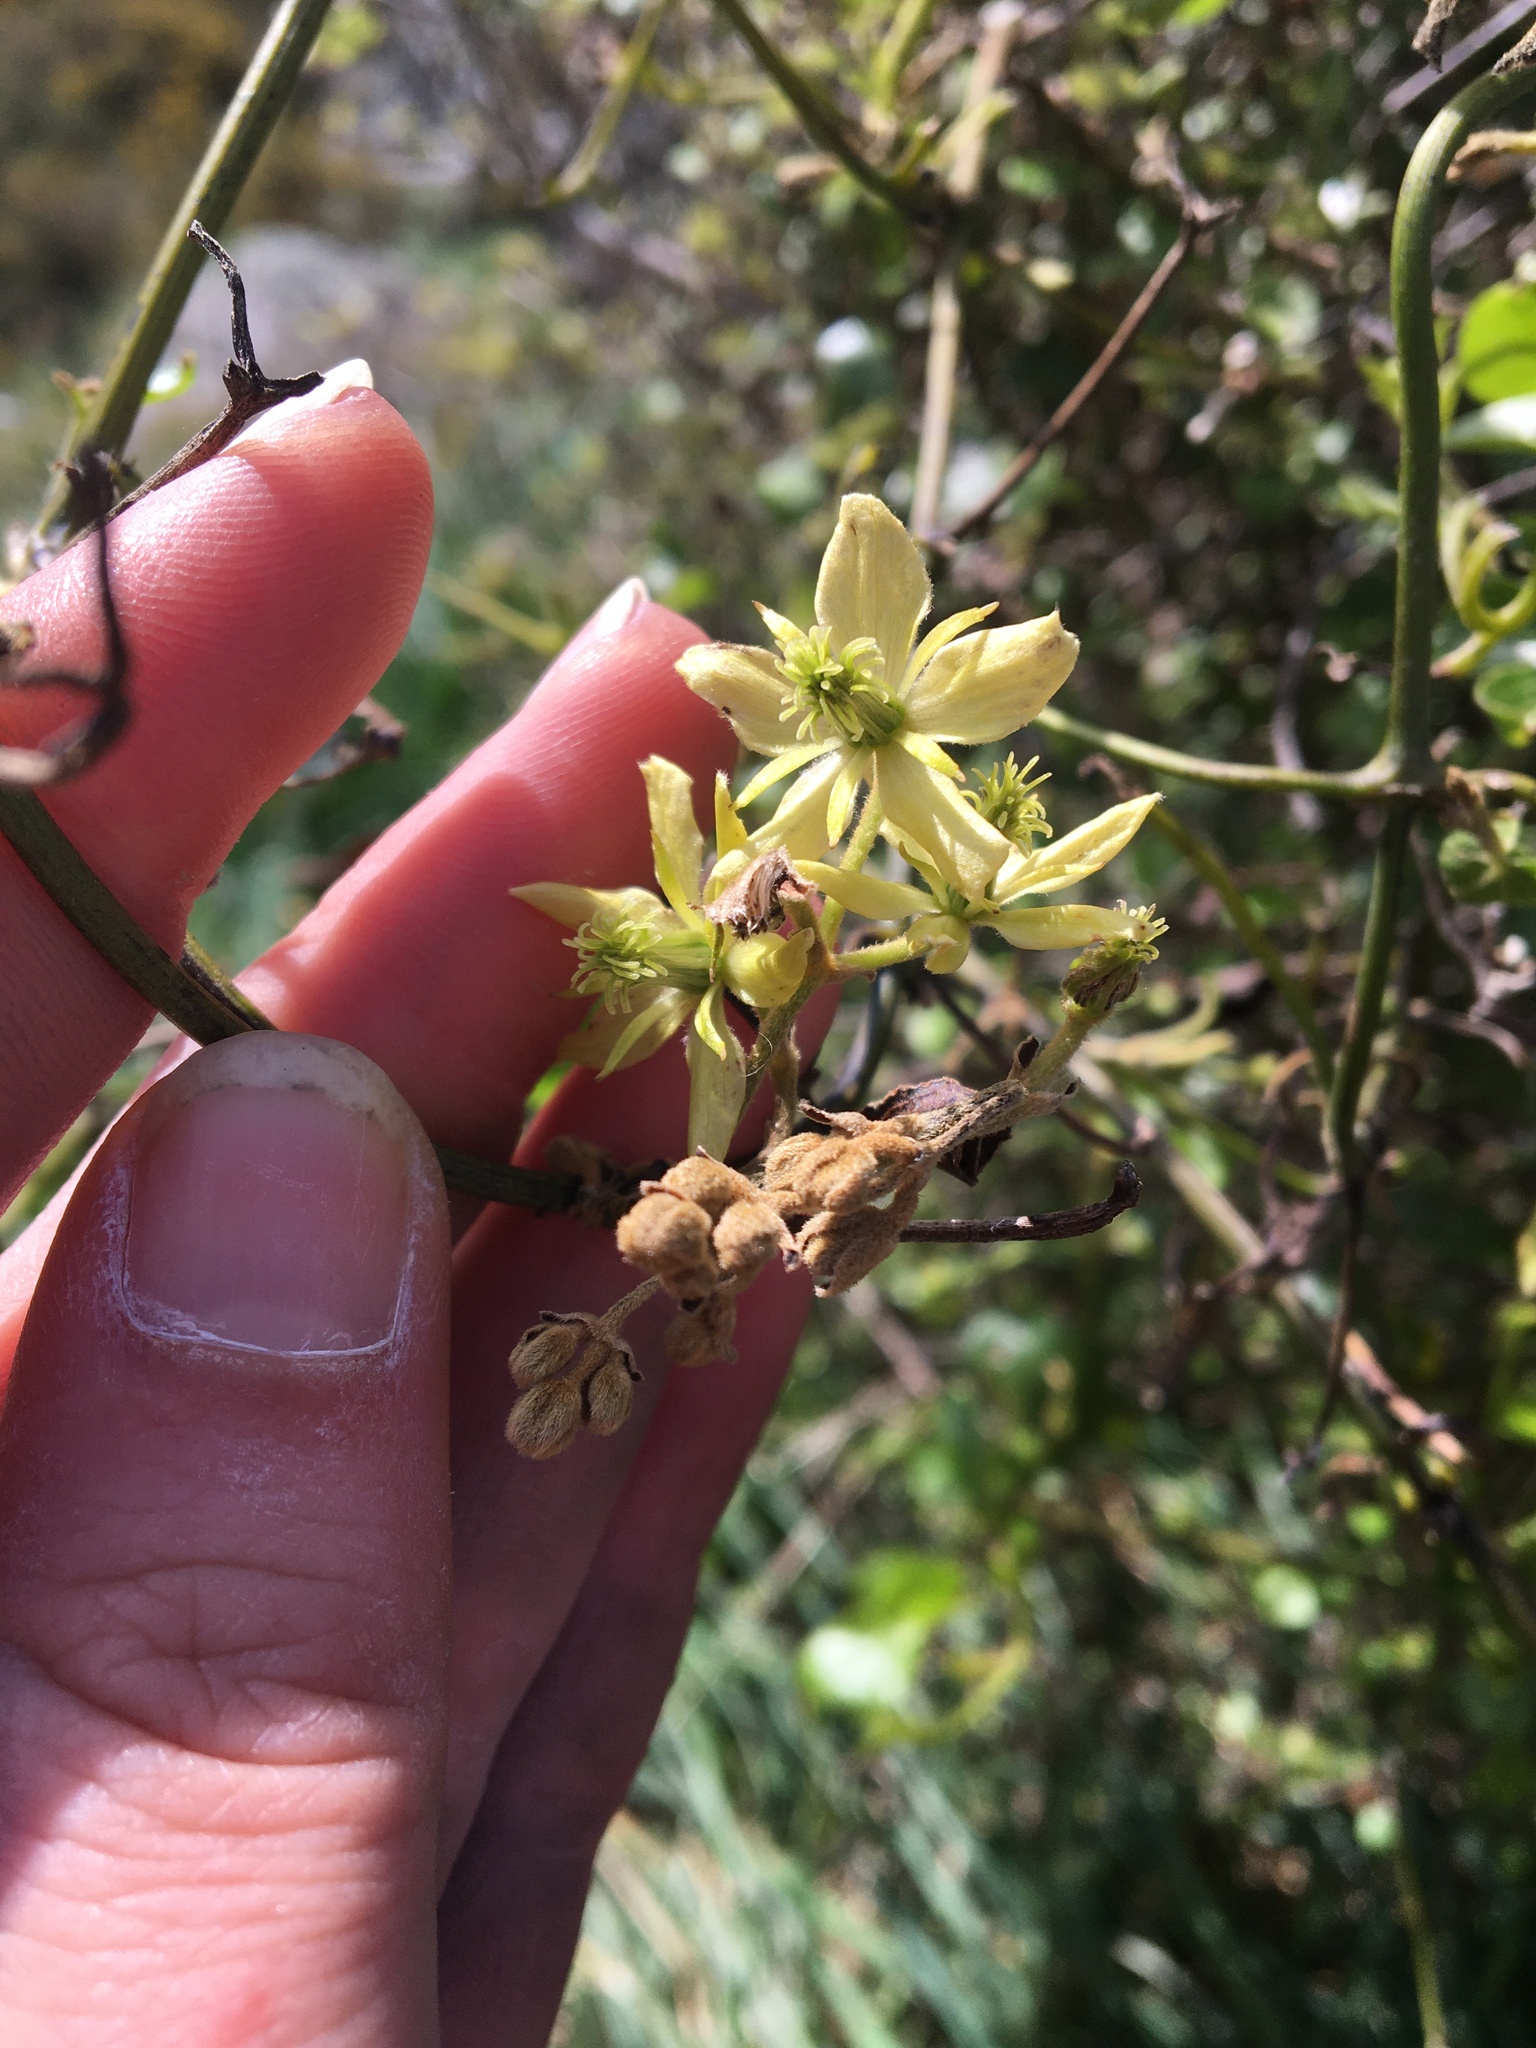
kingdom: Plantae
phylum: Tracheophyta
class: Magnoliopsida
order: Ranunculales
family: Ranunculaceae
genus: Clematis
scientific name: Clematis foetida
